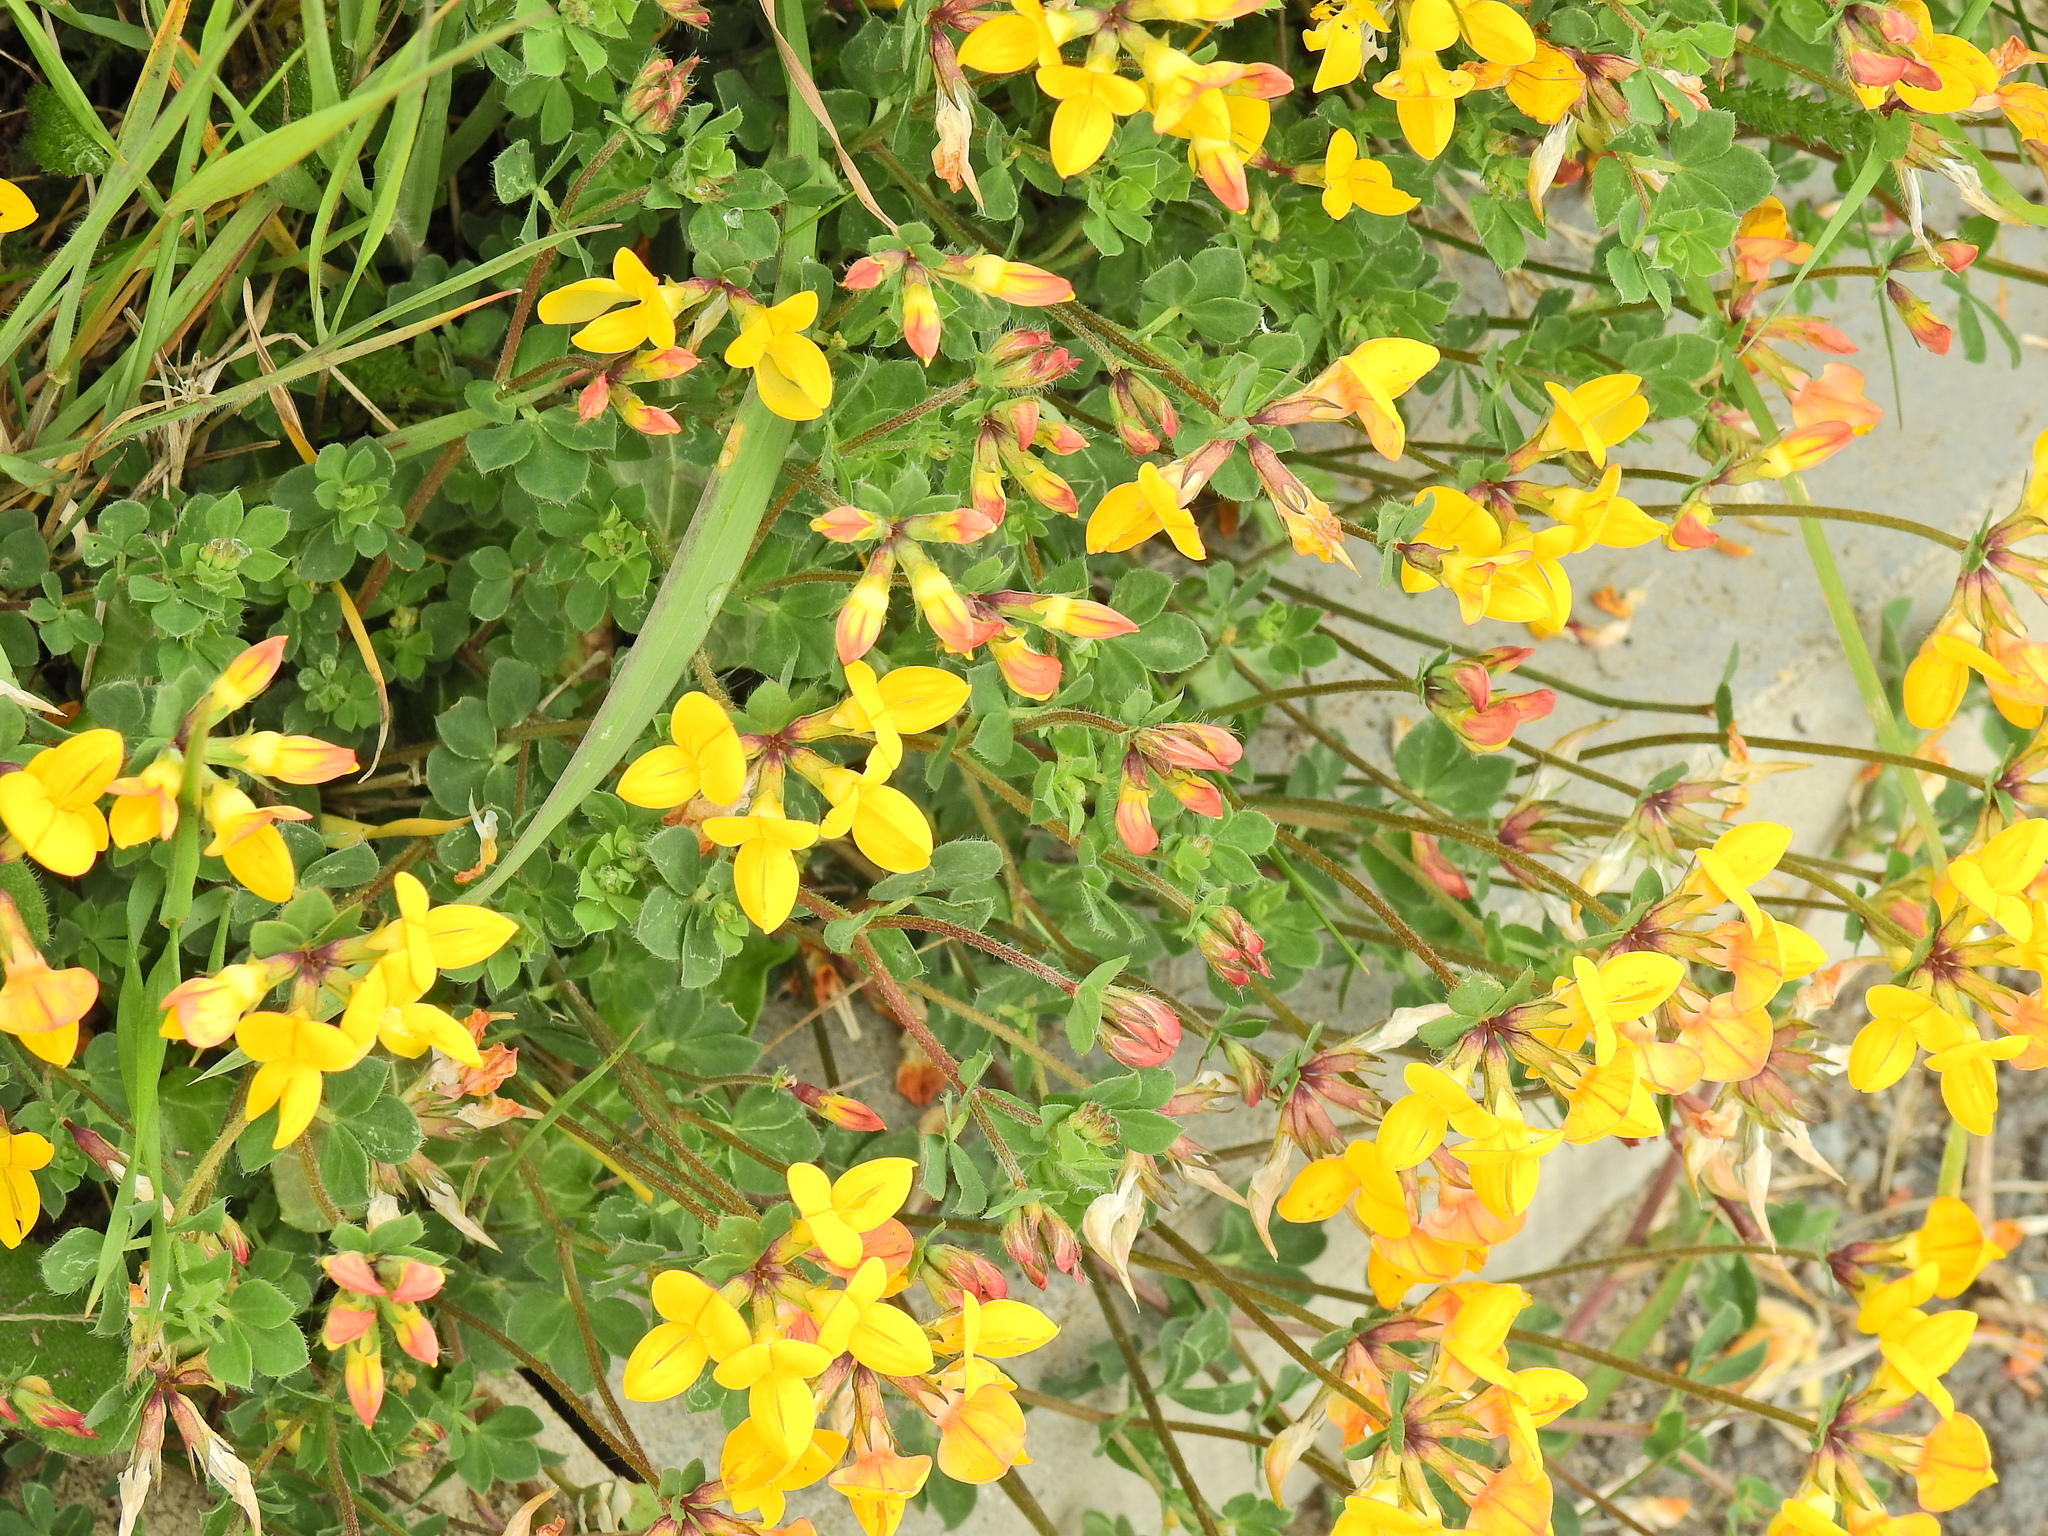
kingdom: Plantae
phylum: Tracheophyta
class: Magnoliopsida
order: Fabales
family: Fabaceae
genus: Lotus
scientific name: Lotus corniculatus
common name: Common bird's-foot-trefoil
